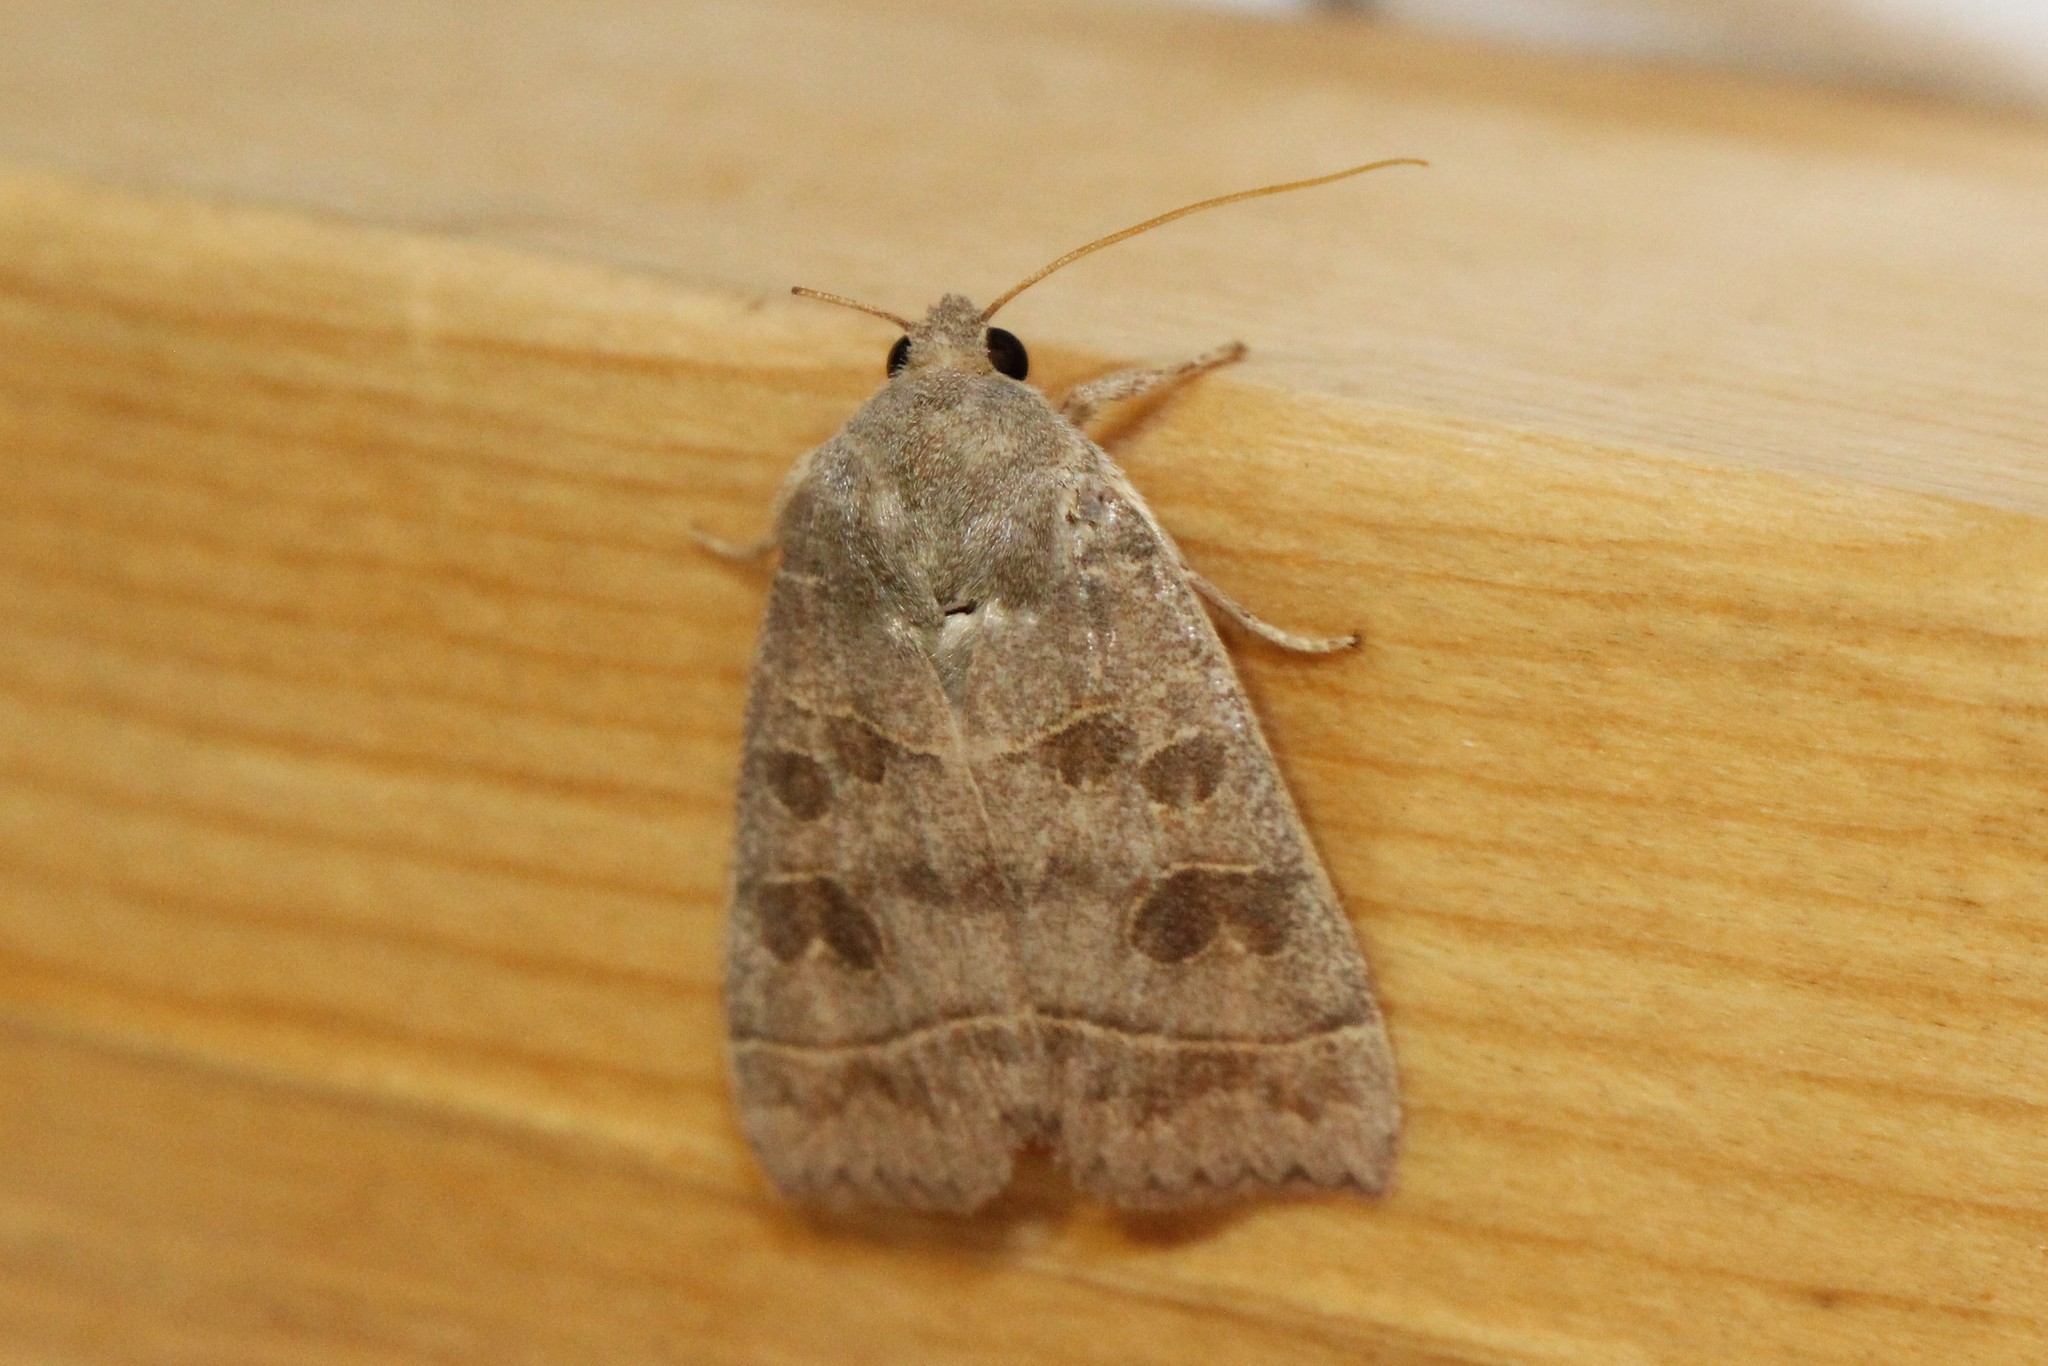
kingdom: Animalia
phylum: Arthropoda
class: Insecta
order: Lepidoptera
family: Noctuidae
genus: Ipimorpha
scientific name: Ipimorpha pleonectusa
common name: Even-lined sallow
